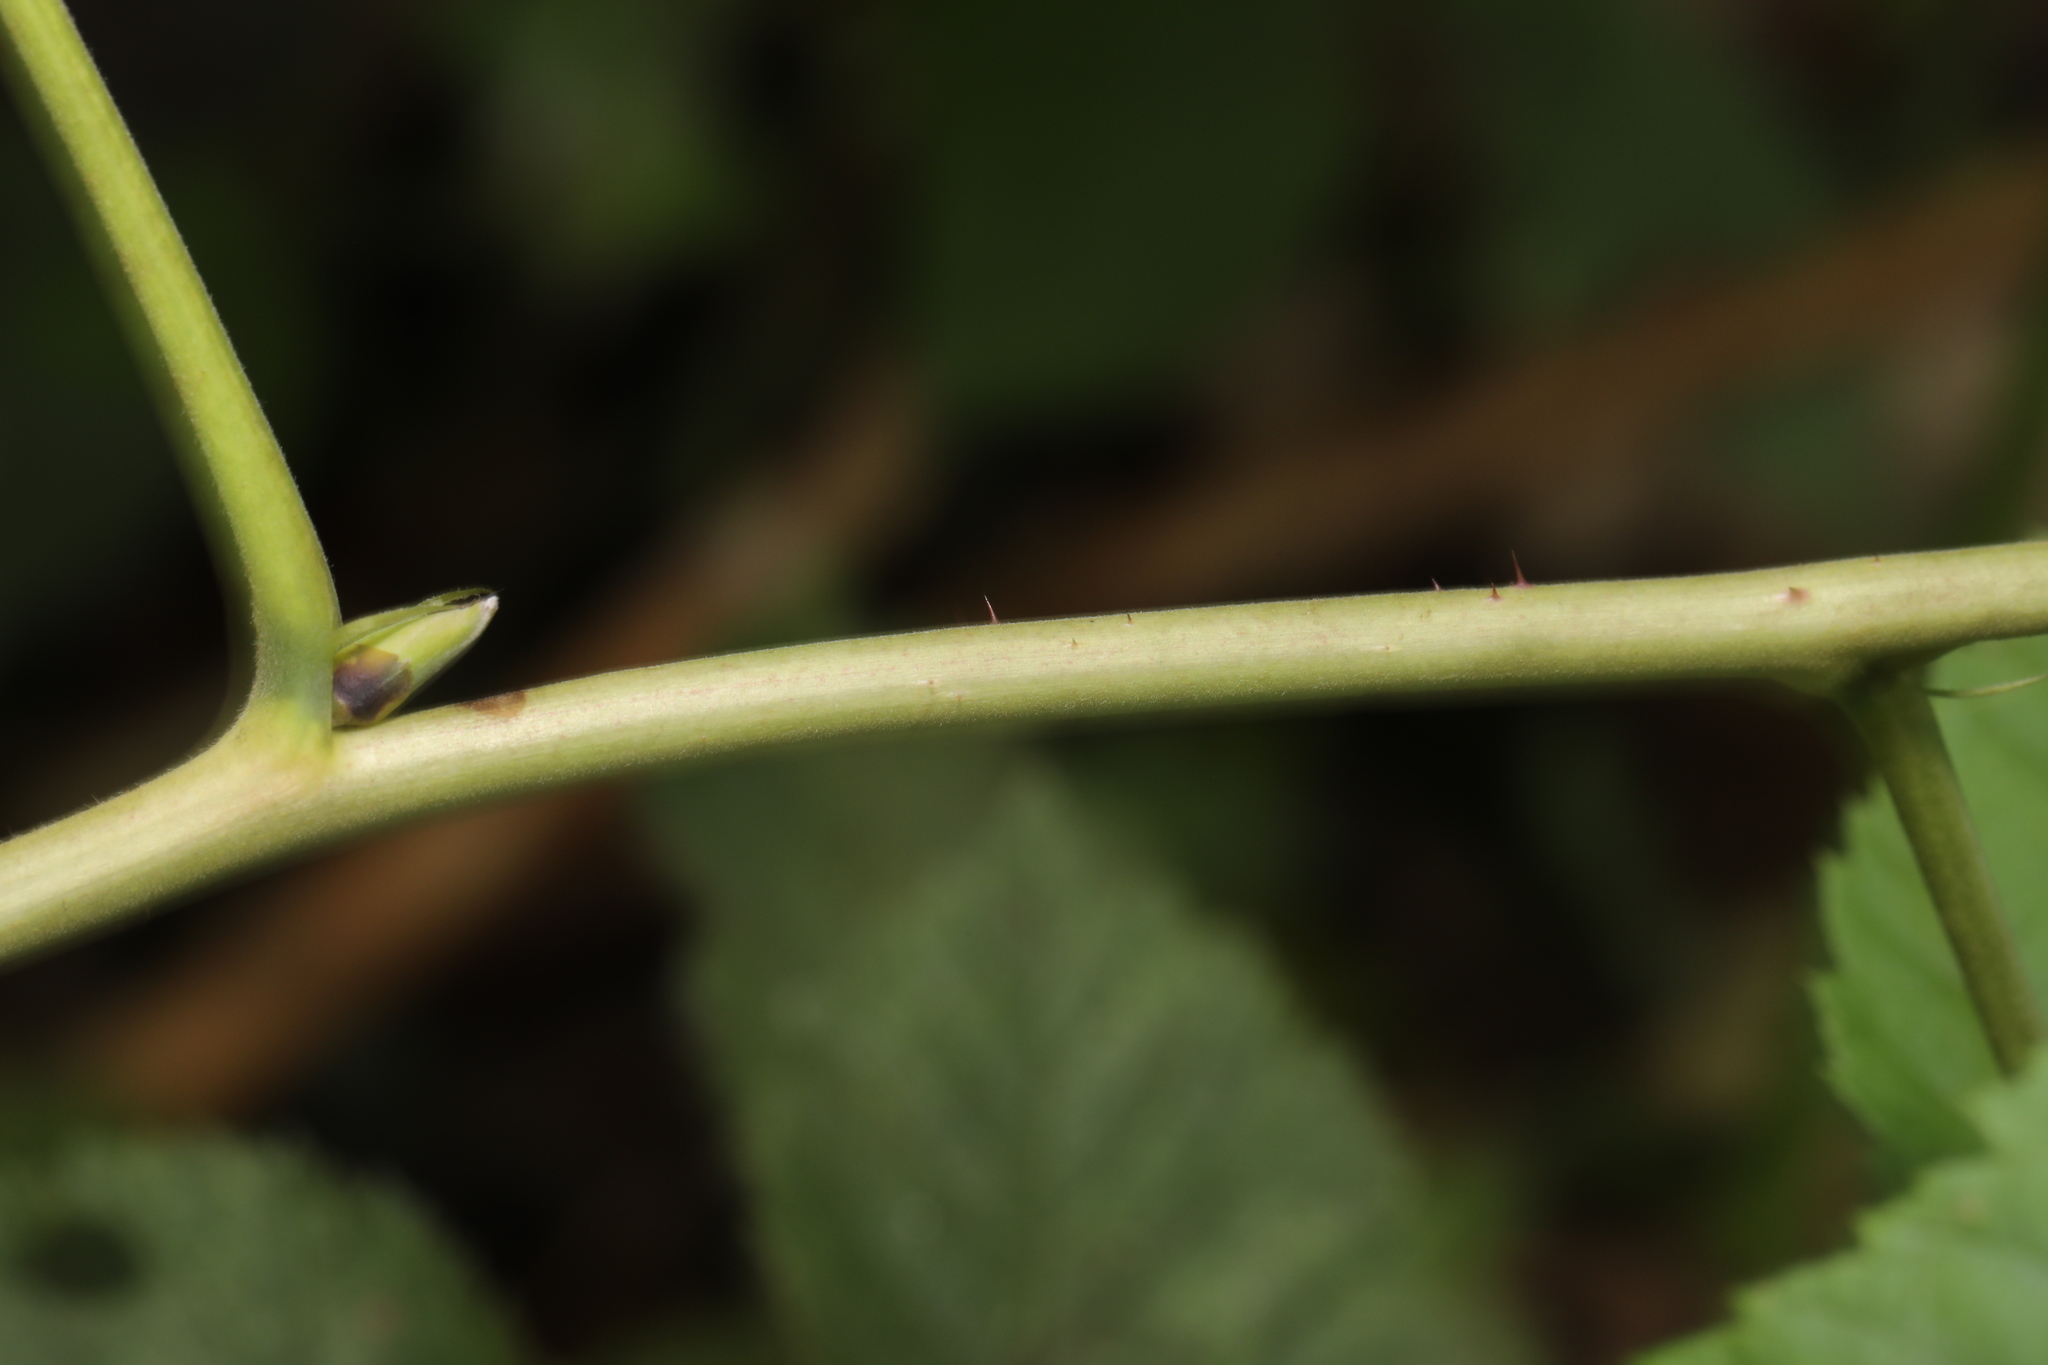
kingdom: Plantae
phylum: Tracheophyta
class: Magnoliopsida
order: Rosales
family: Rosaceae
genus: Rubus
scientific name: Rubus idaeus
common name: Raspberry
